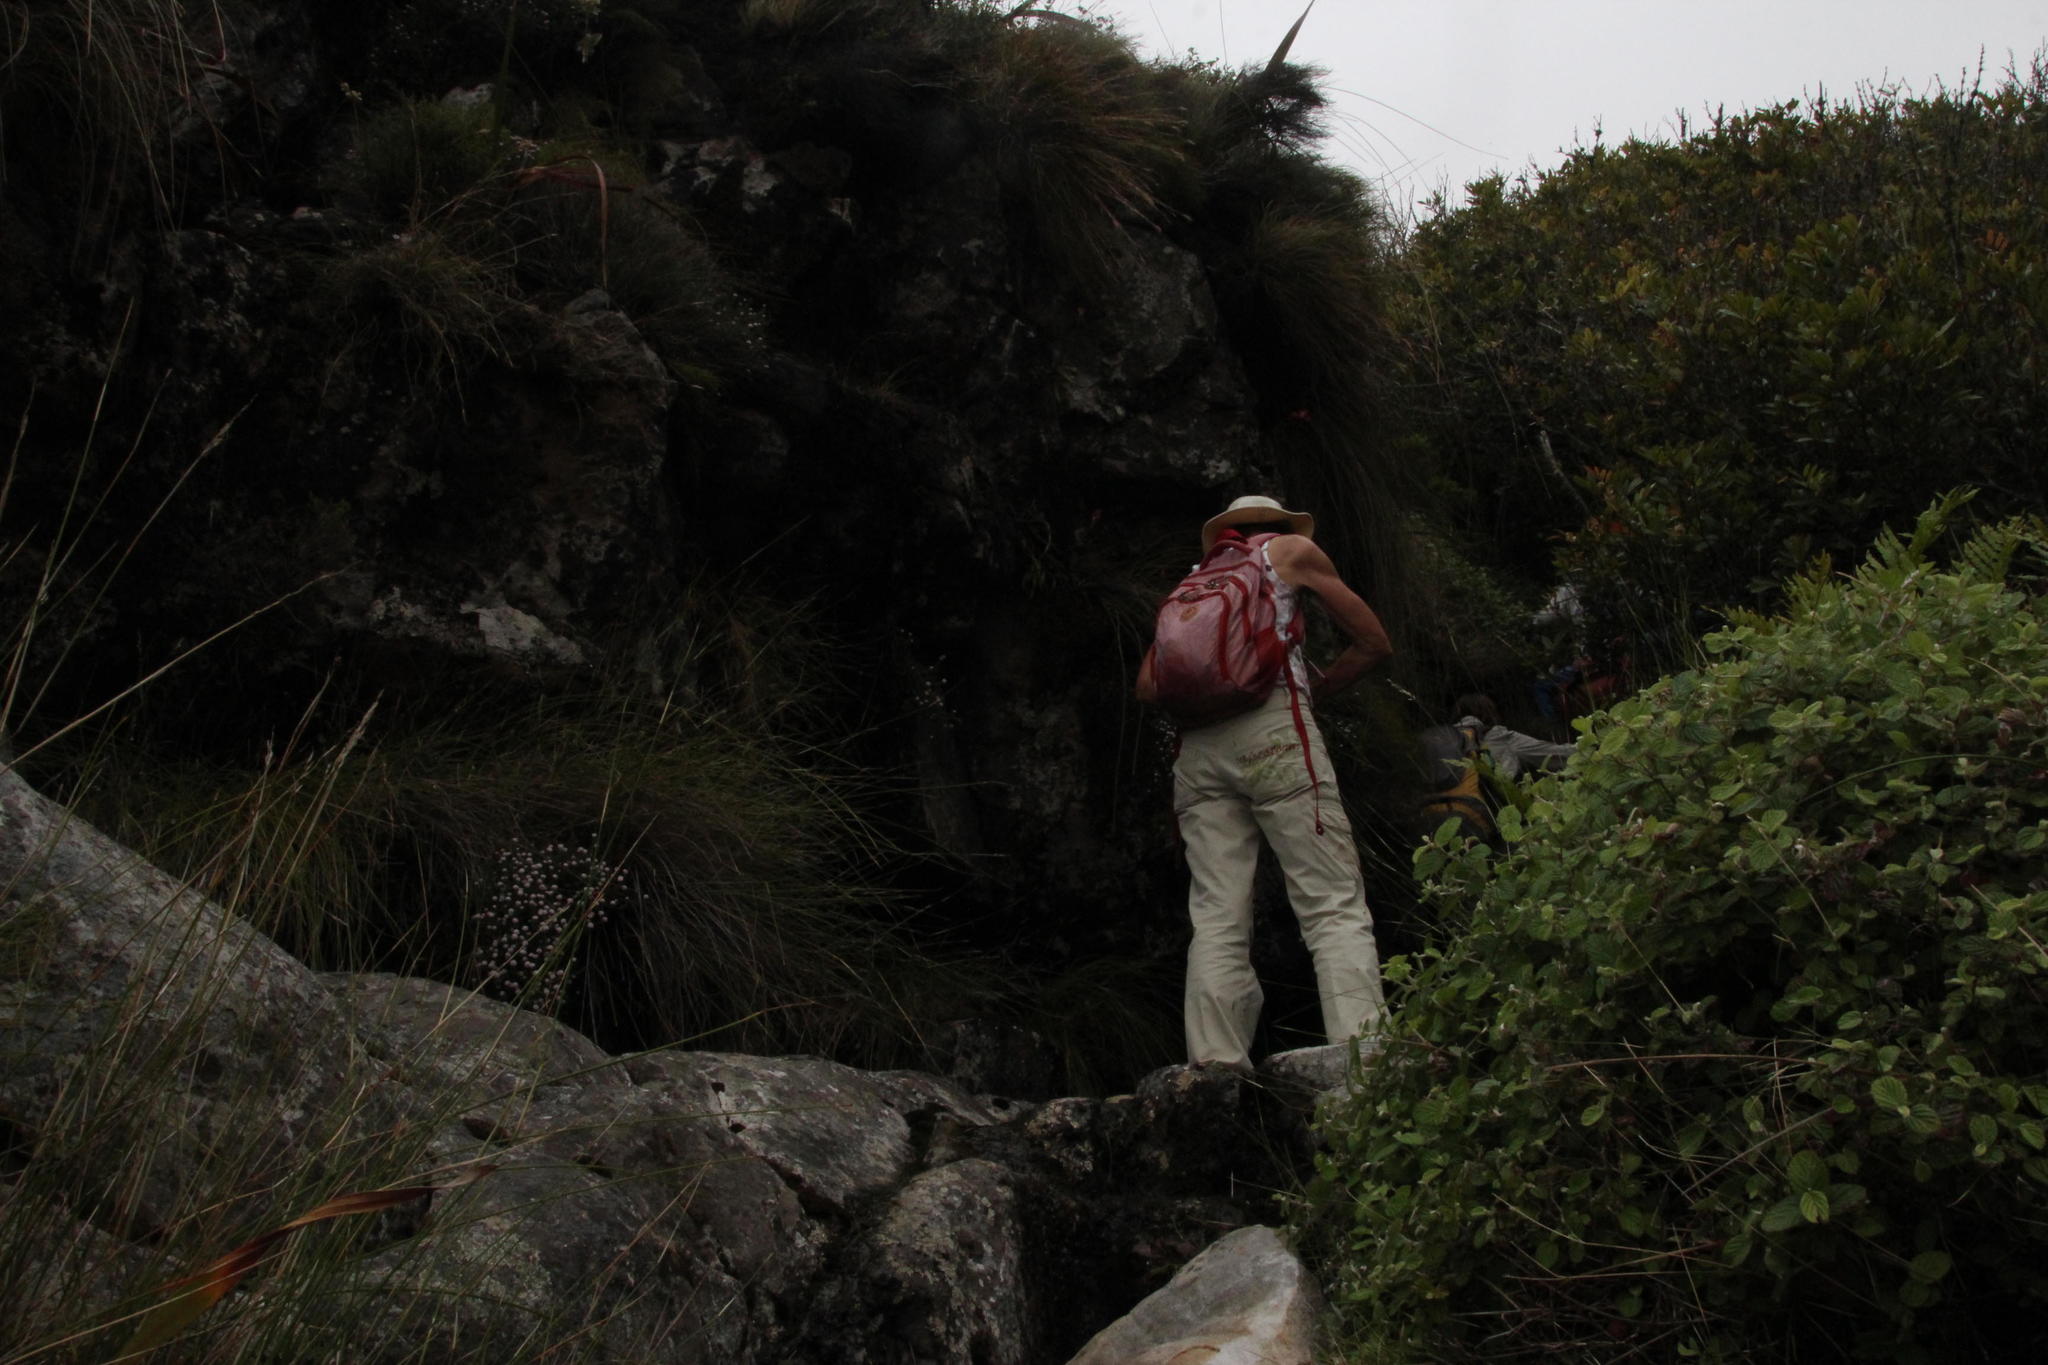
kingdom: Plantae
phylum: Tracheophyta
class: Magnoliopsida
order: Asterales
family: Asteraceae
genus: Stoebe
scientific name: Stoebe prostrata
